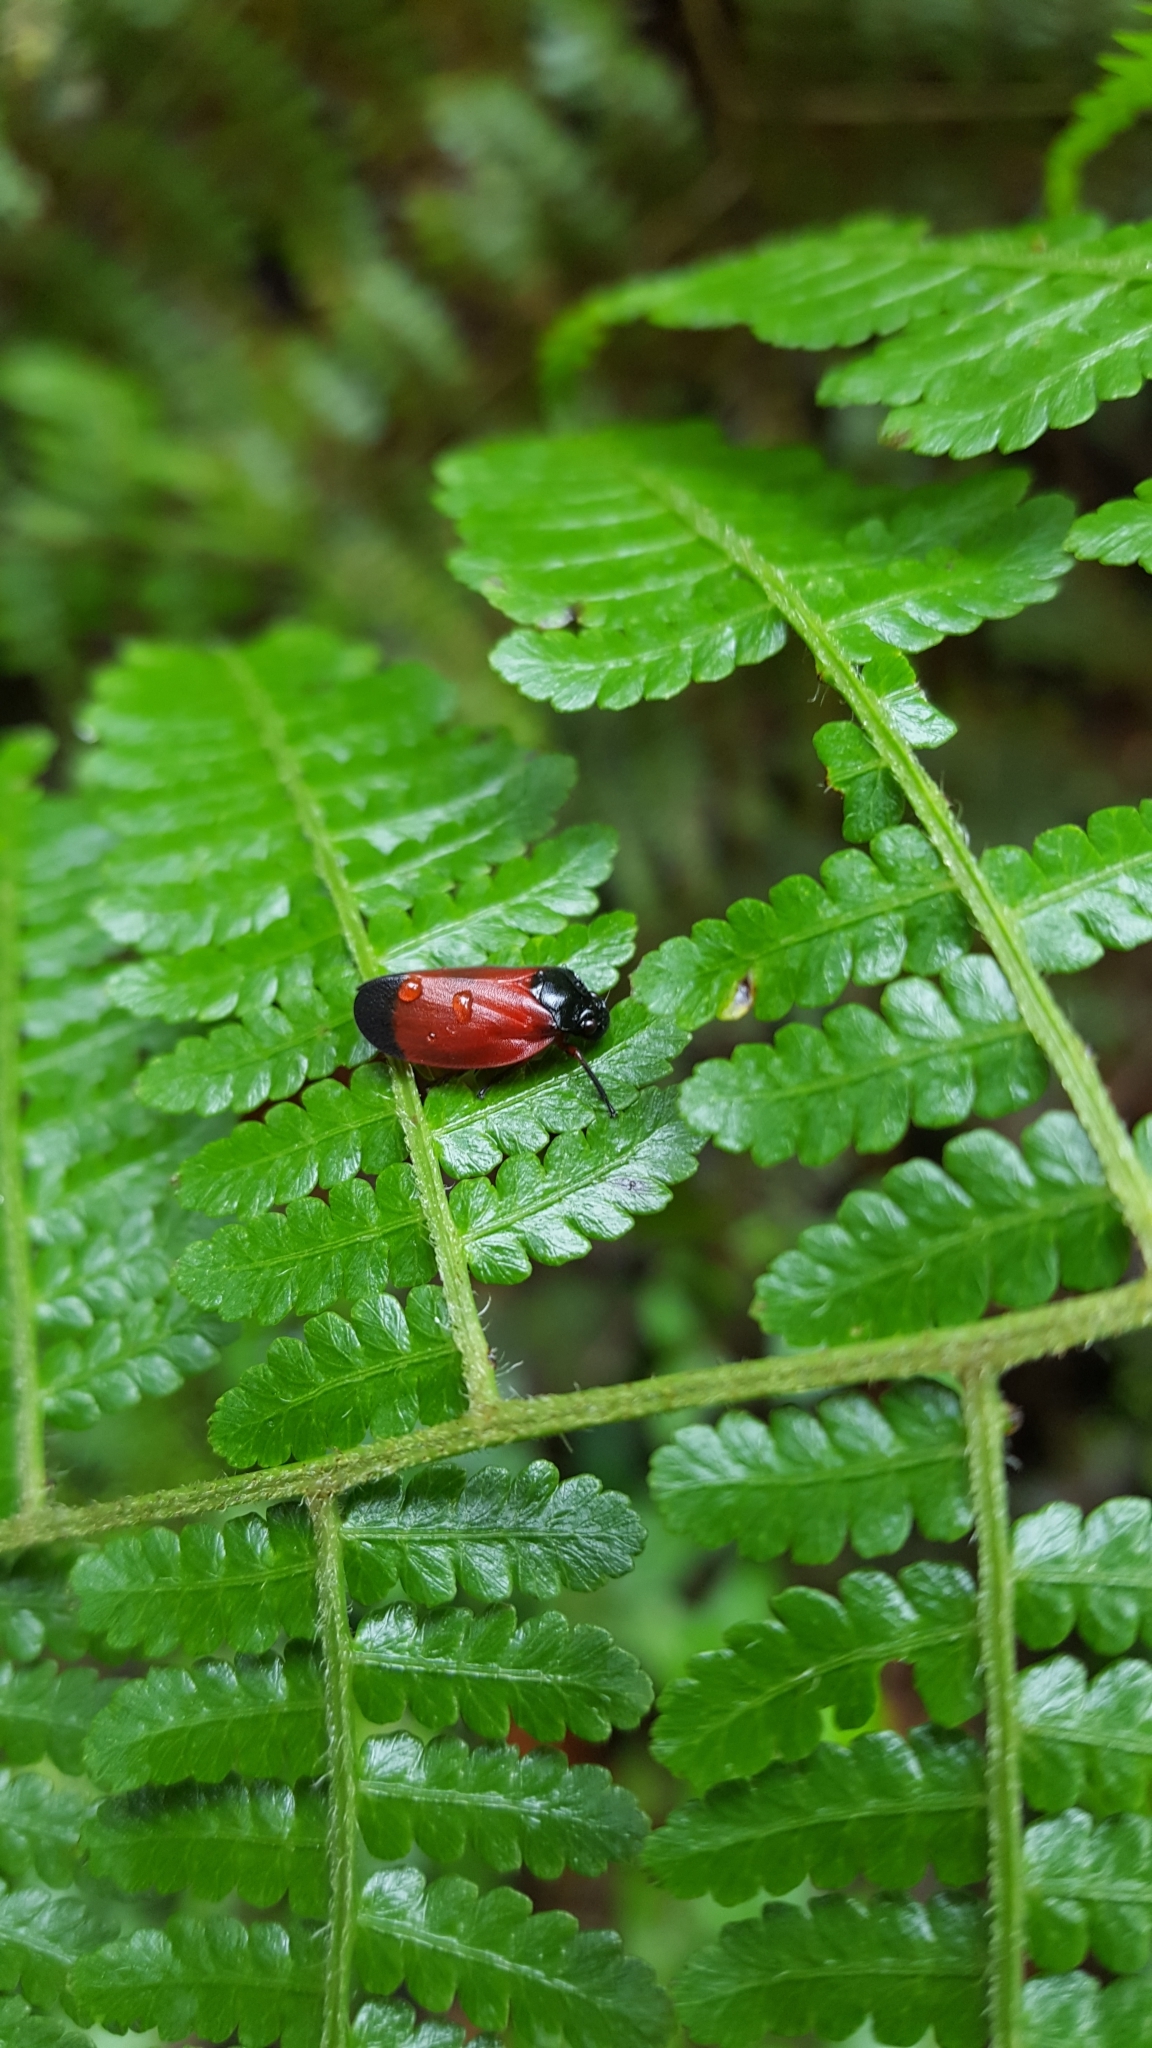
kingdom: Animalia
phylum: Arthropoda
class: Insecta
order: Hemiptera
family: Cercopidae
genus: Sphenorhina
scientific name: Sphenorhina conspicua
